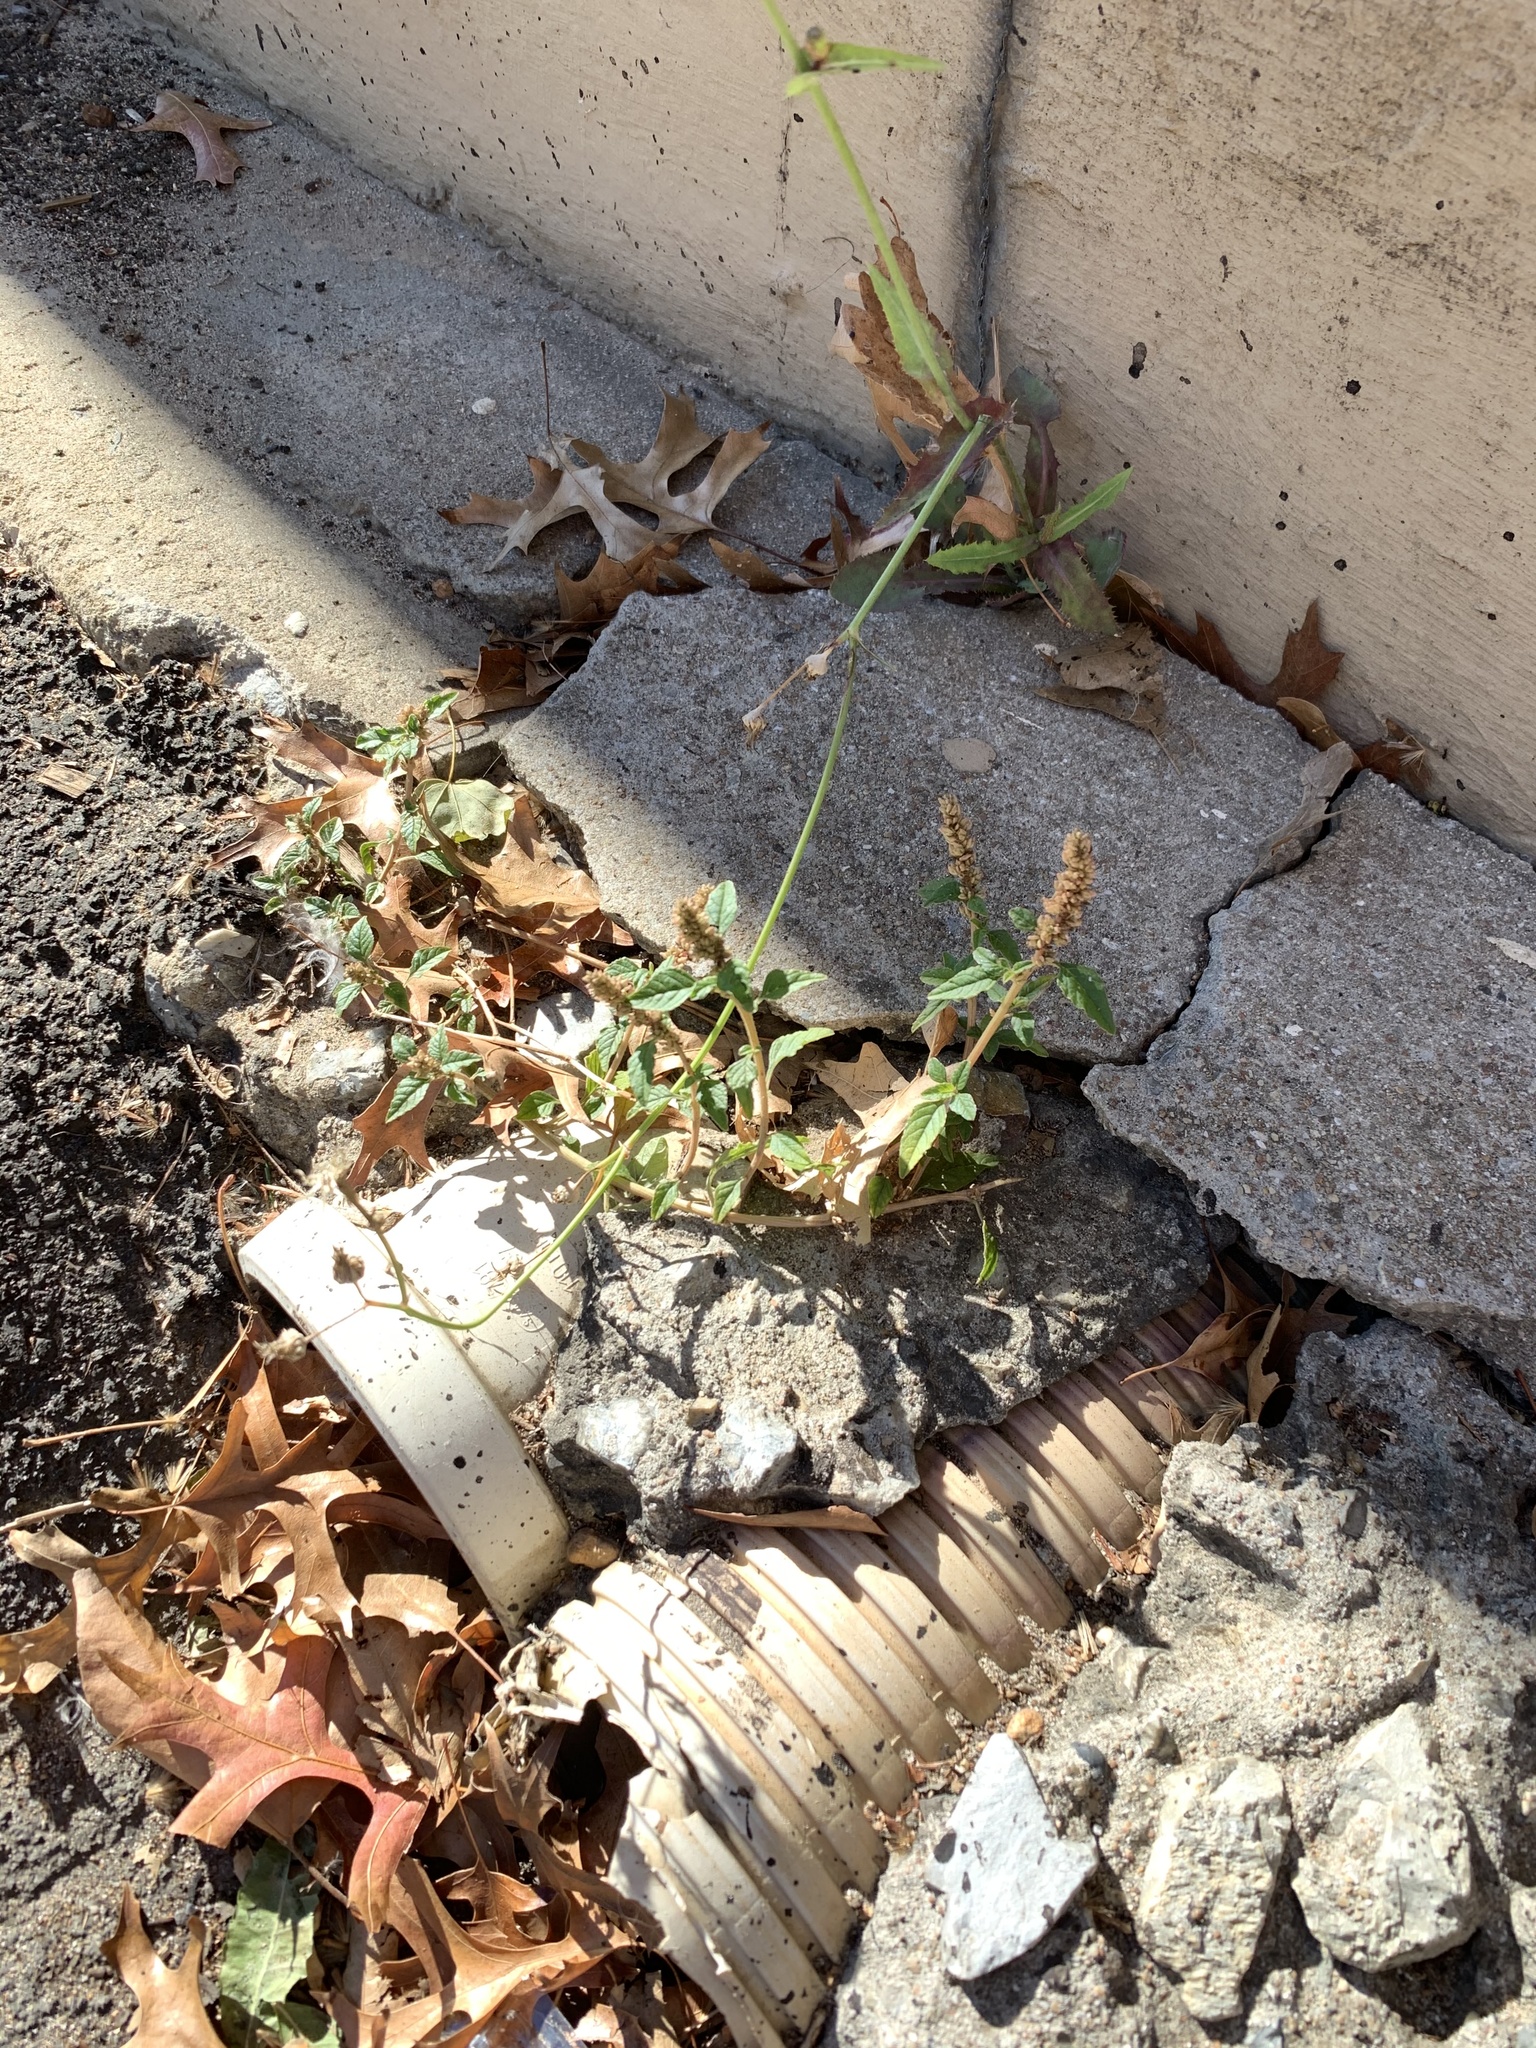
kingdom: Plantae
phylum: Tracheophyta
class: Magnoliopsida
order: Caryophyllales
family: Amaranthaceae
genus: Amaranthus
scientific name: Amaranthus deflexus
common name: Perennial pigweed
